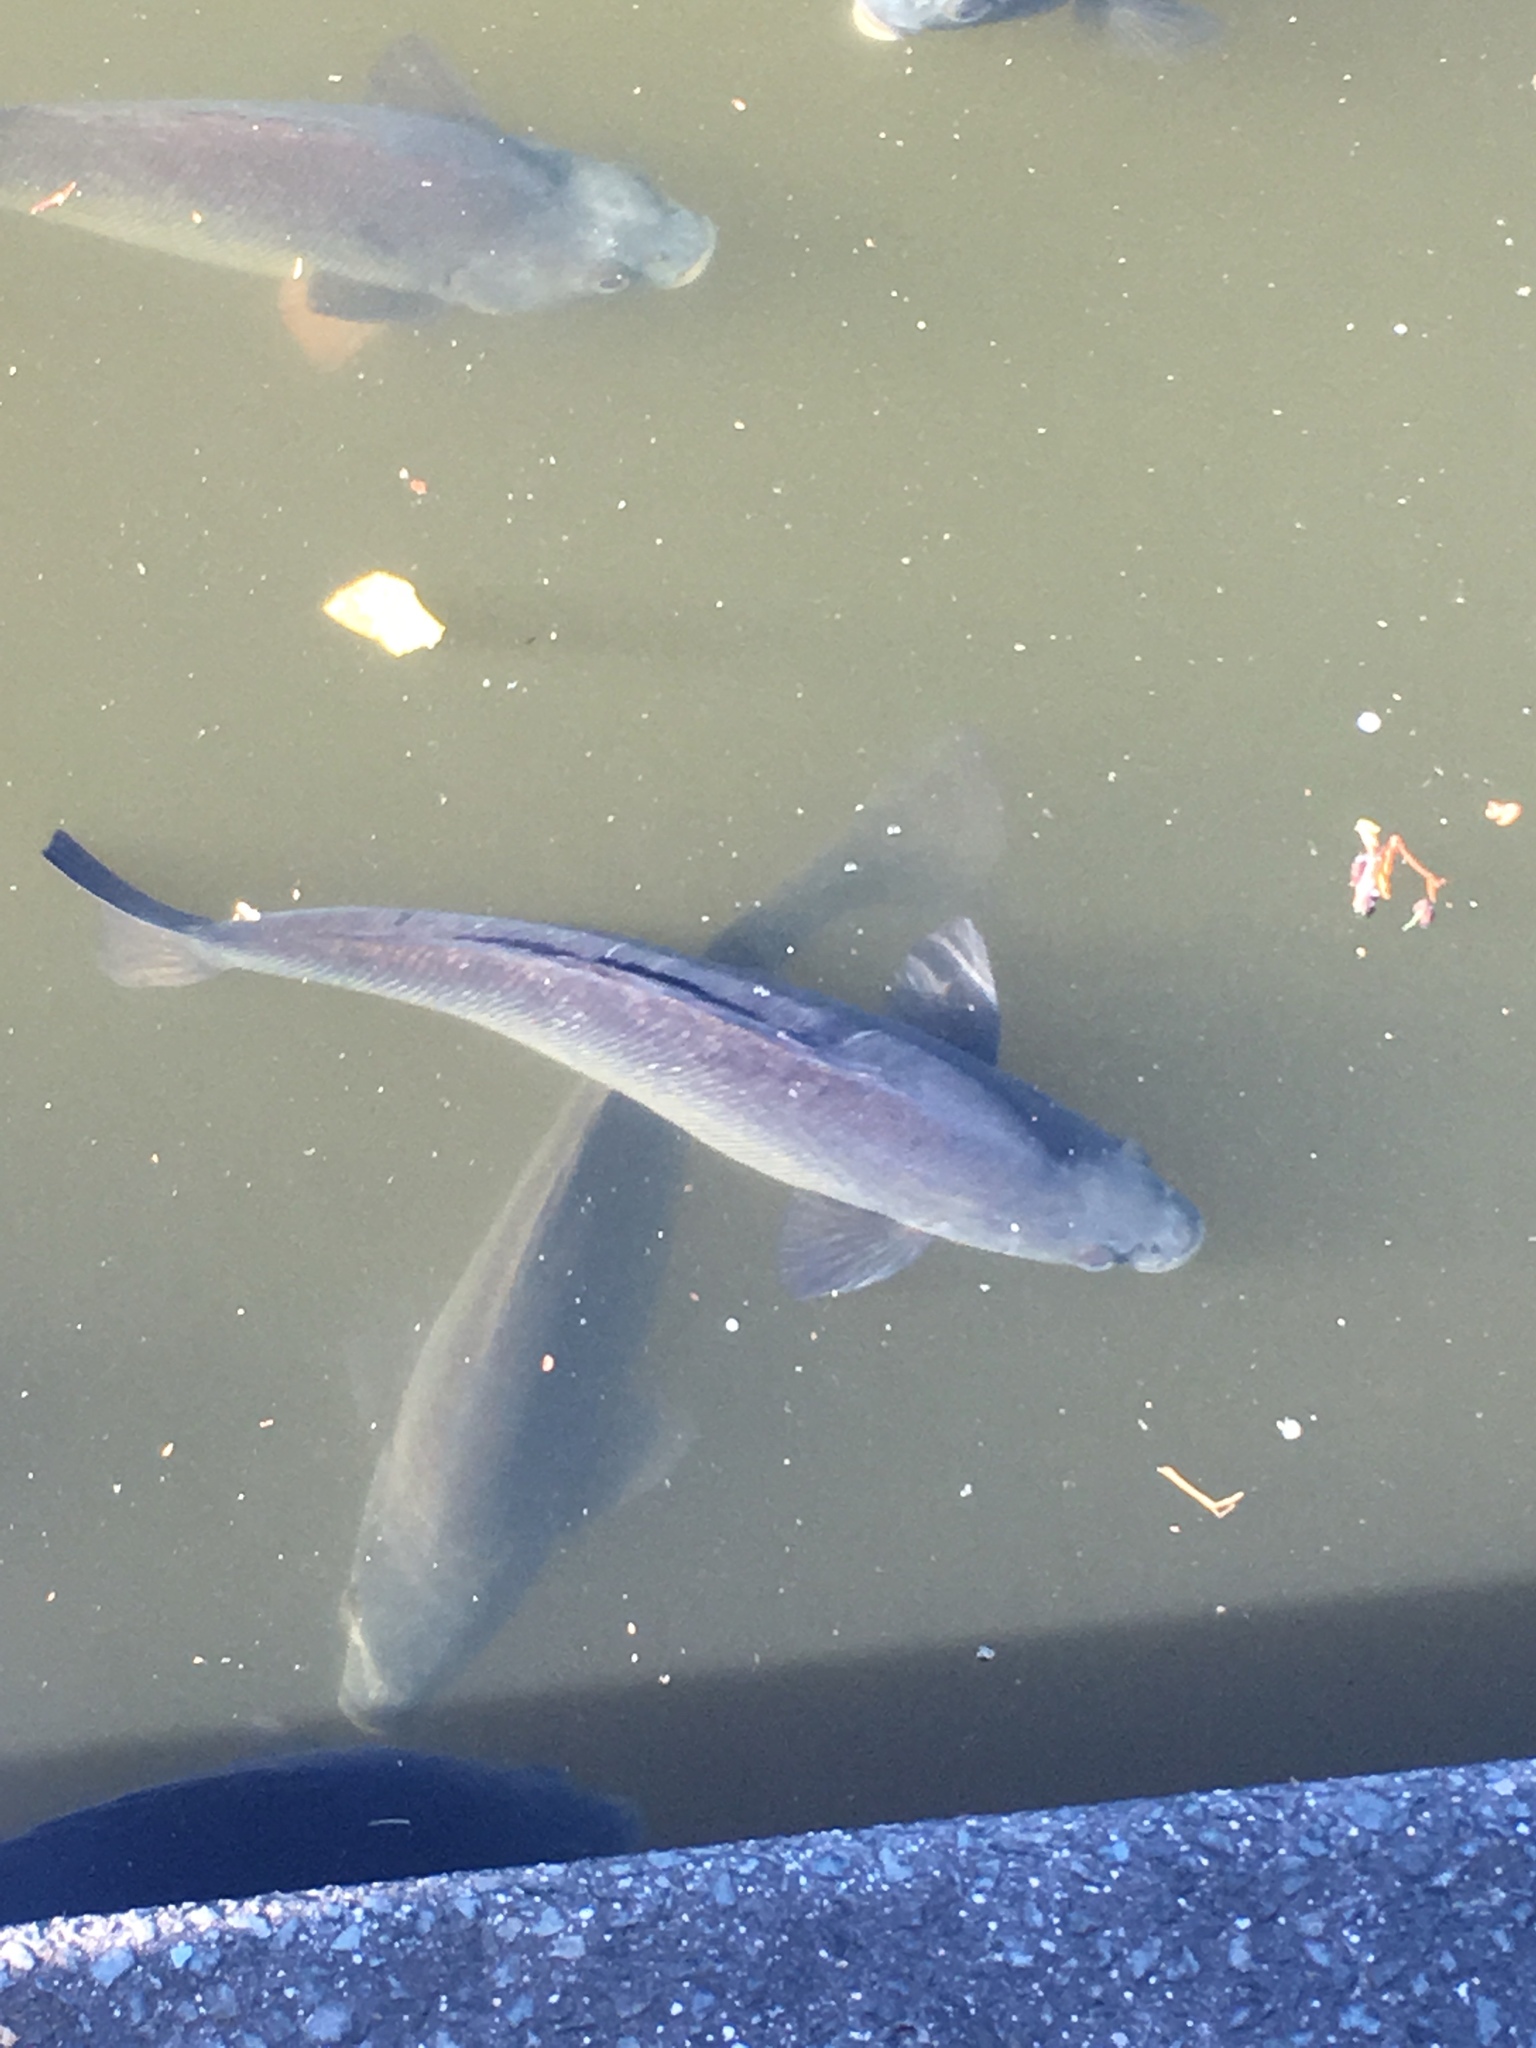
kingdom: Animalia
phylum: Chordata
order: Perciformes
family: Terapontidae
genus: Bidyanus
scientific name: Bidyanus bidyanus
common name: Silver perch
